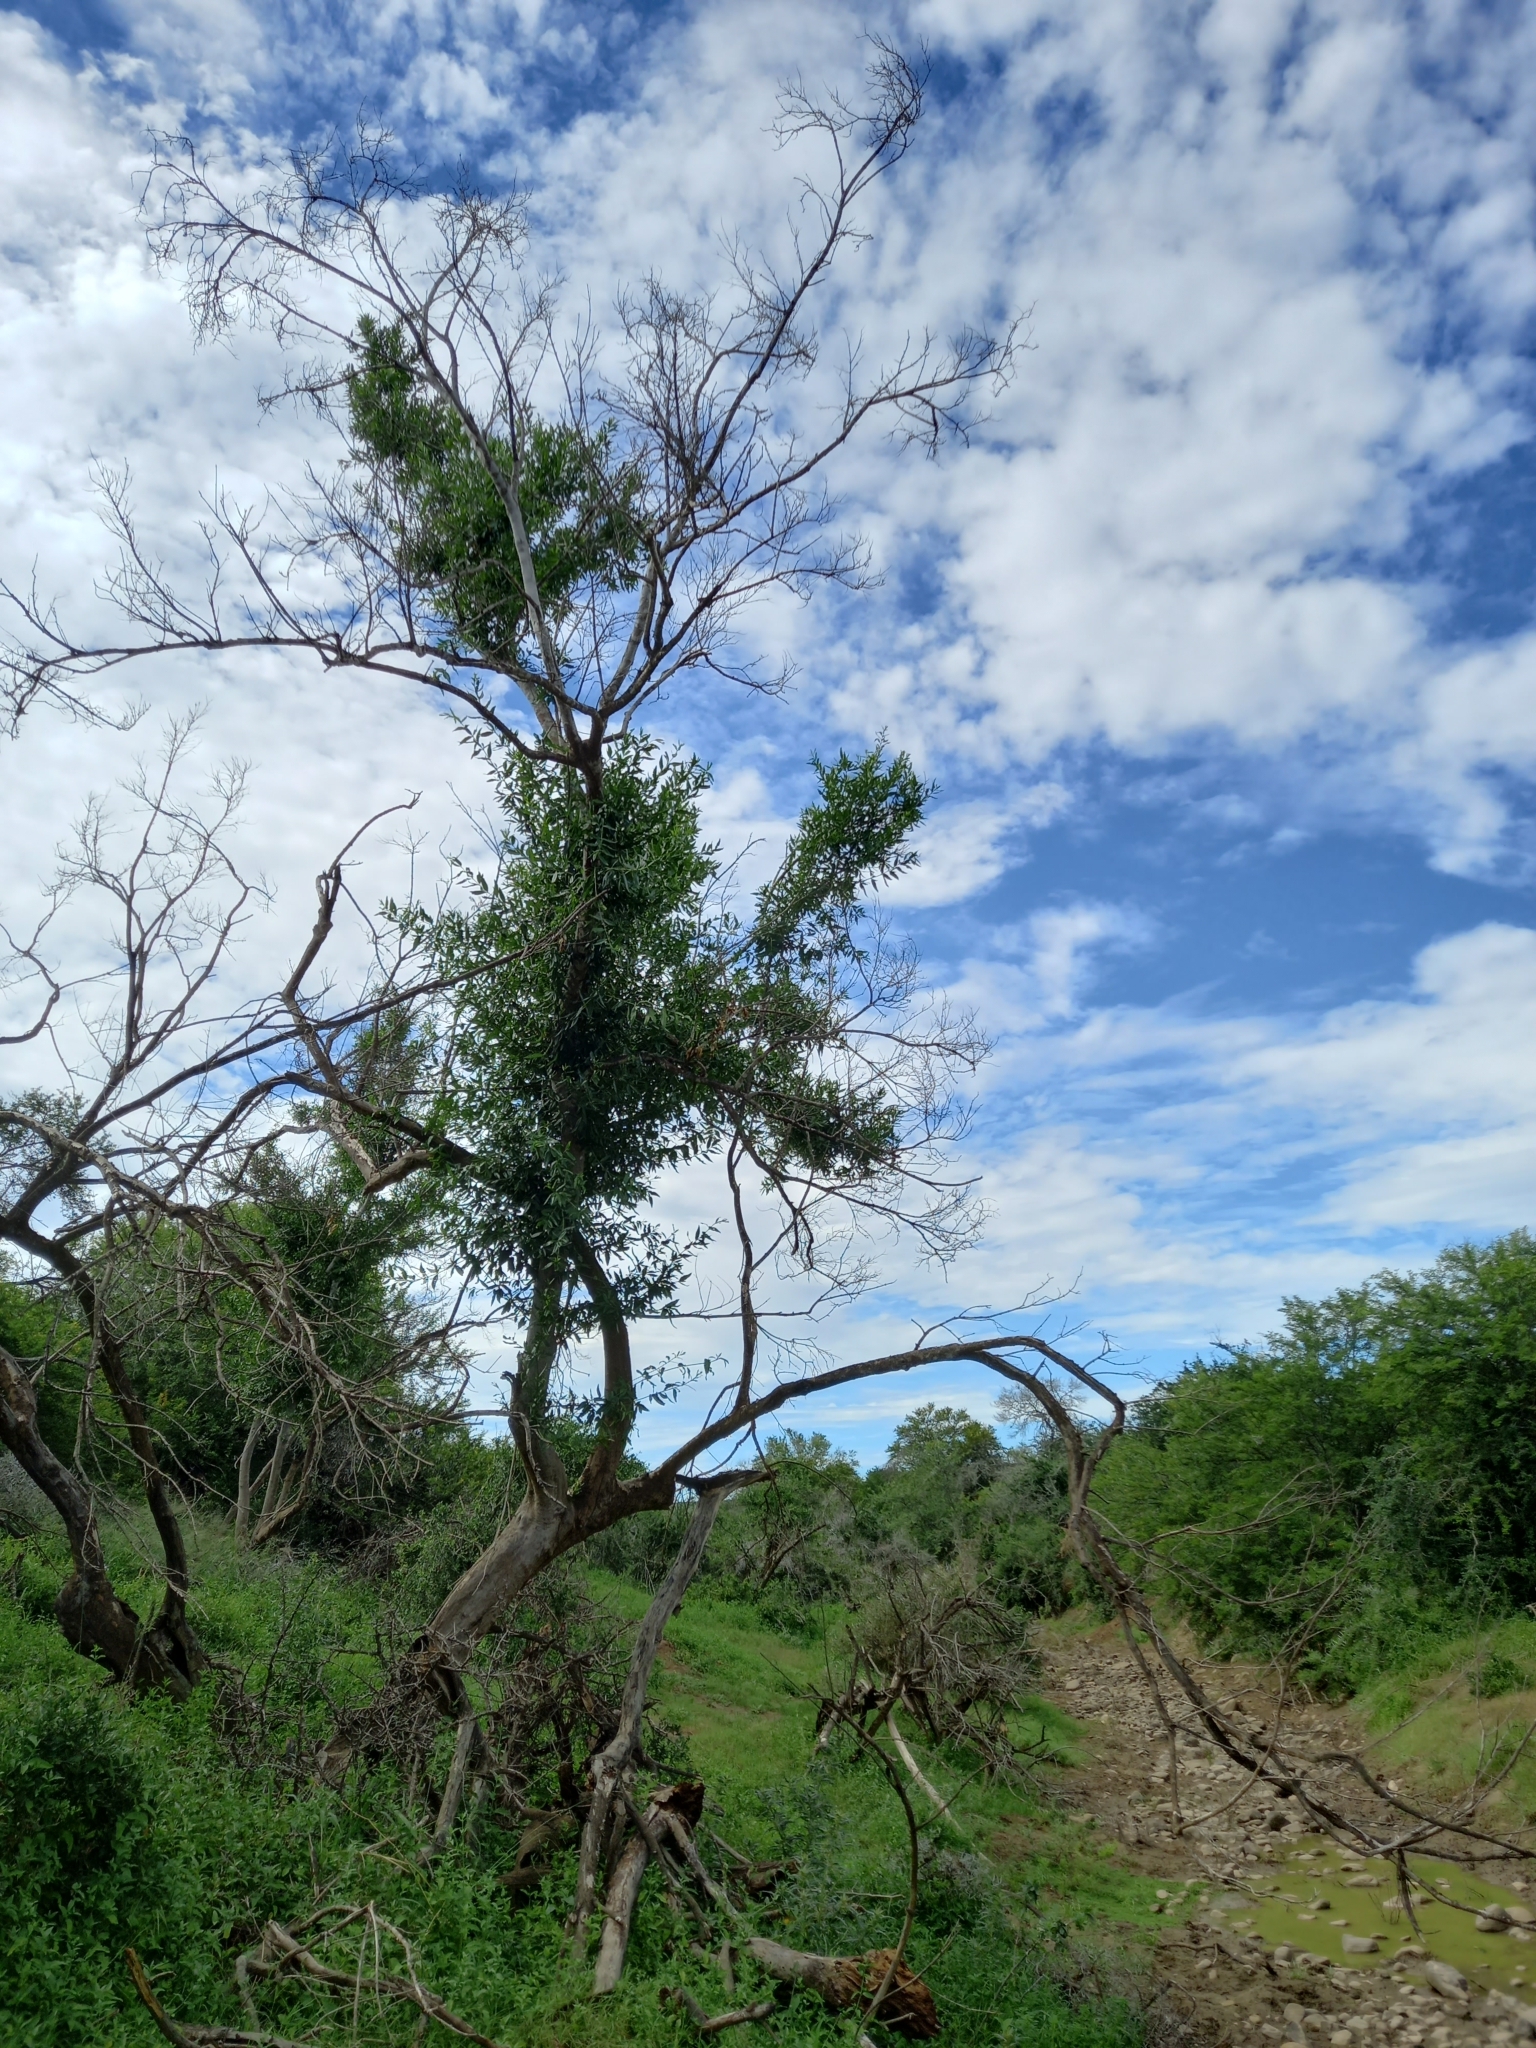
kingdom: Plantae
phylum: Tracheophyta
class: Magnoliopsida
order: Myrtales
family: Combretaceae
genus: Combretum
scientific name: Combretum caffrum
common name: Cape bushwillow
